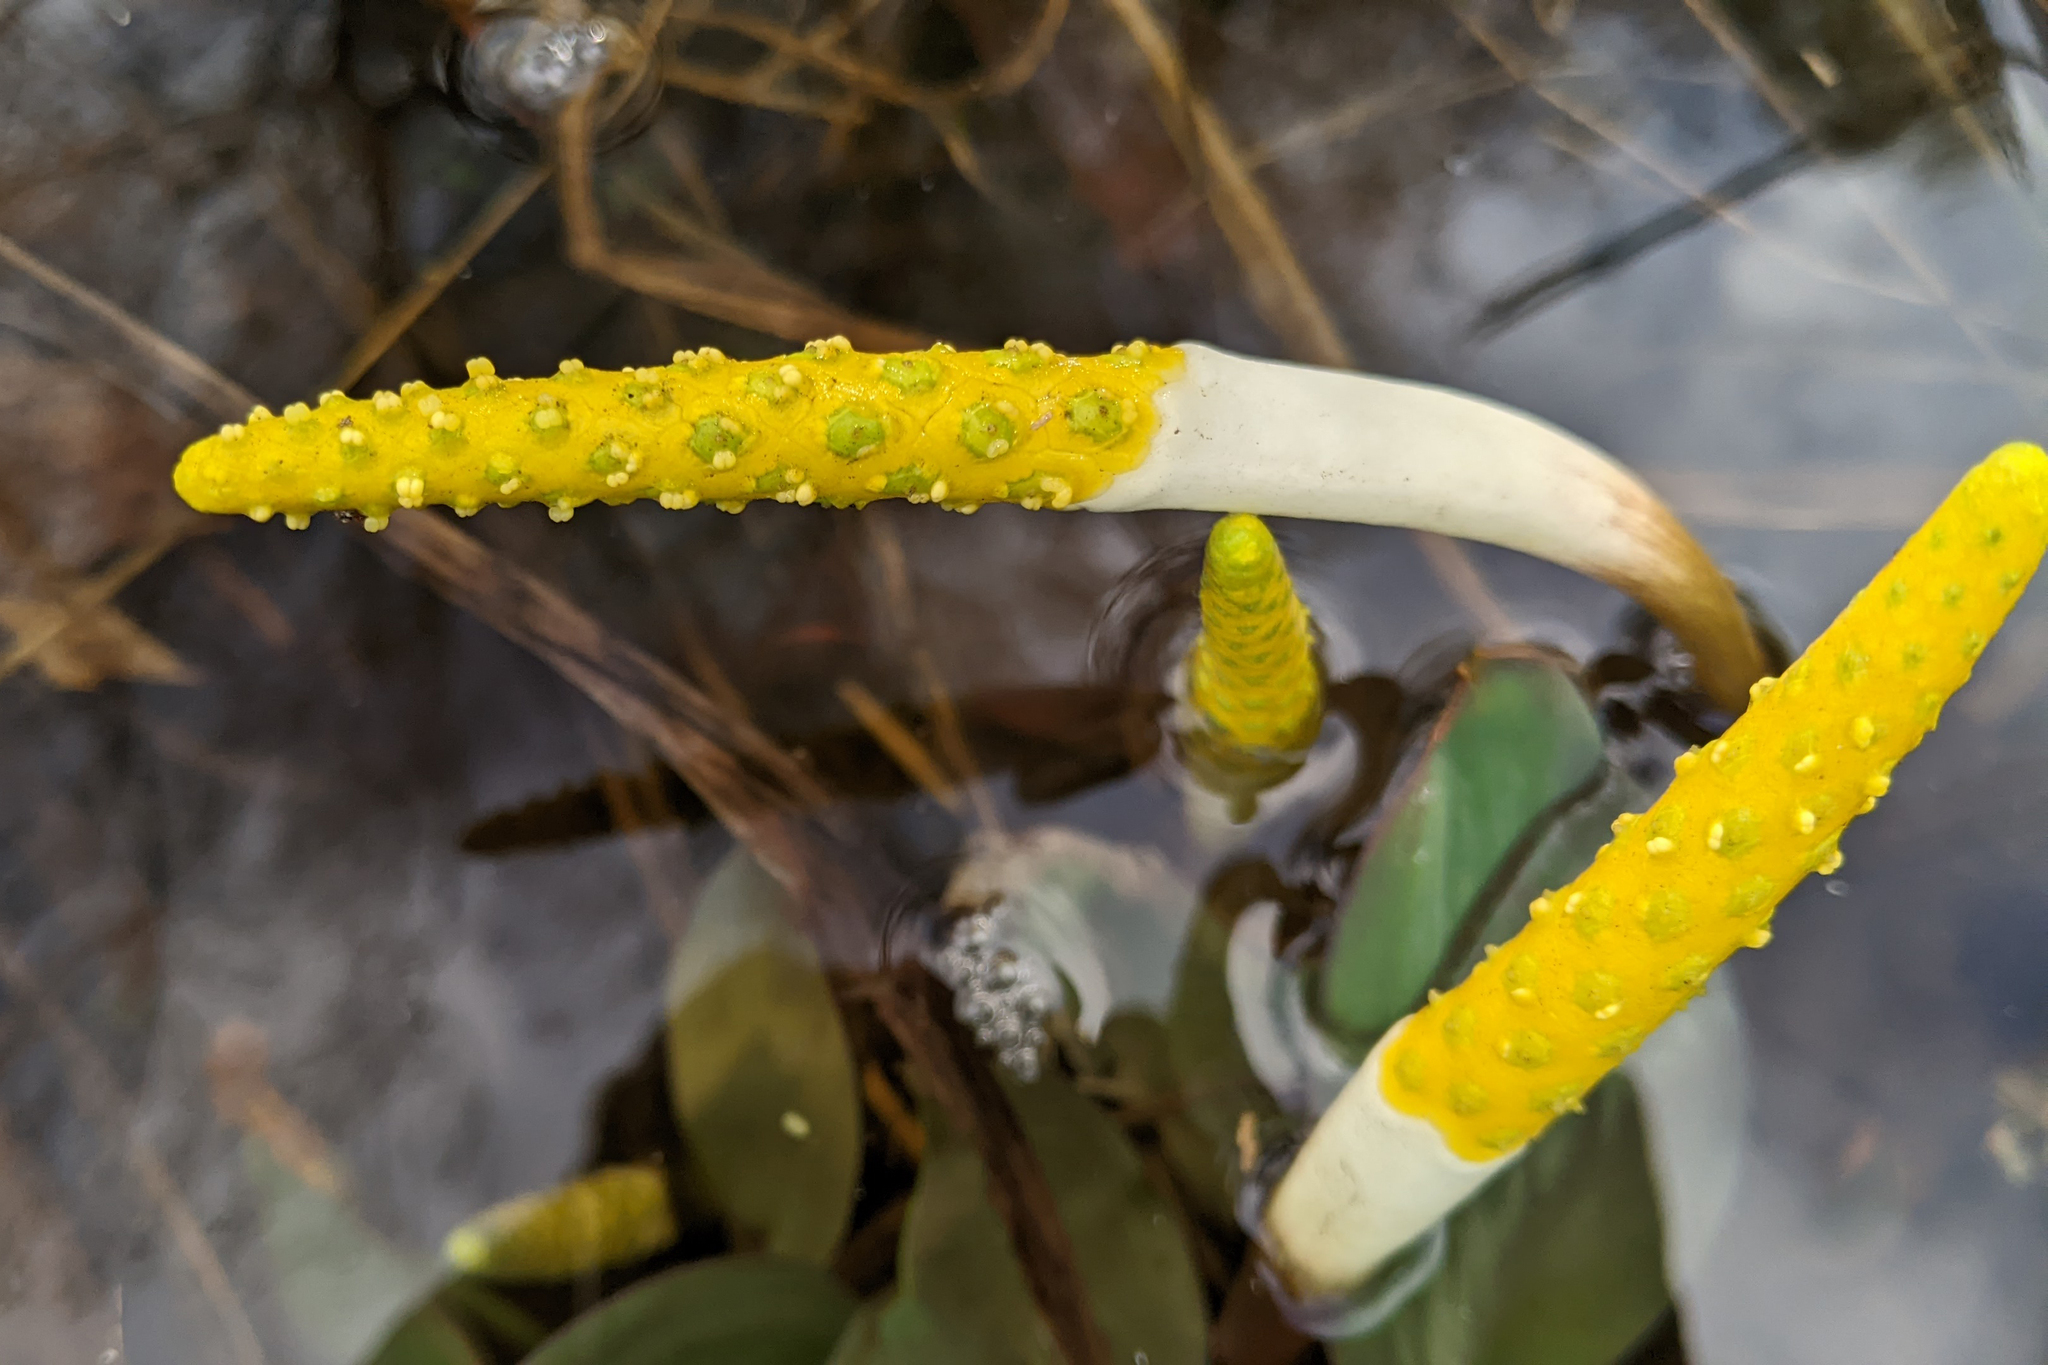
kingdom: Plantae
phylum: Tracheophyta
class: Liliopsida
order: Alismatales
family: Araceae
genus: Orontium
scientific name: Orontium aquaticum
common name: Golden-club
